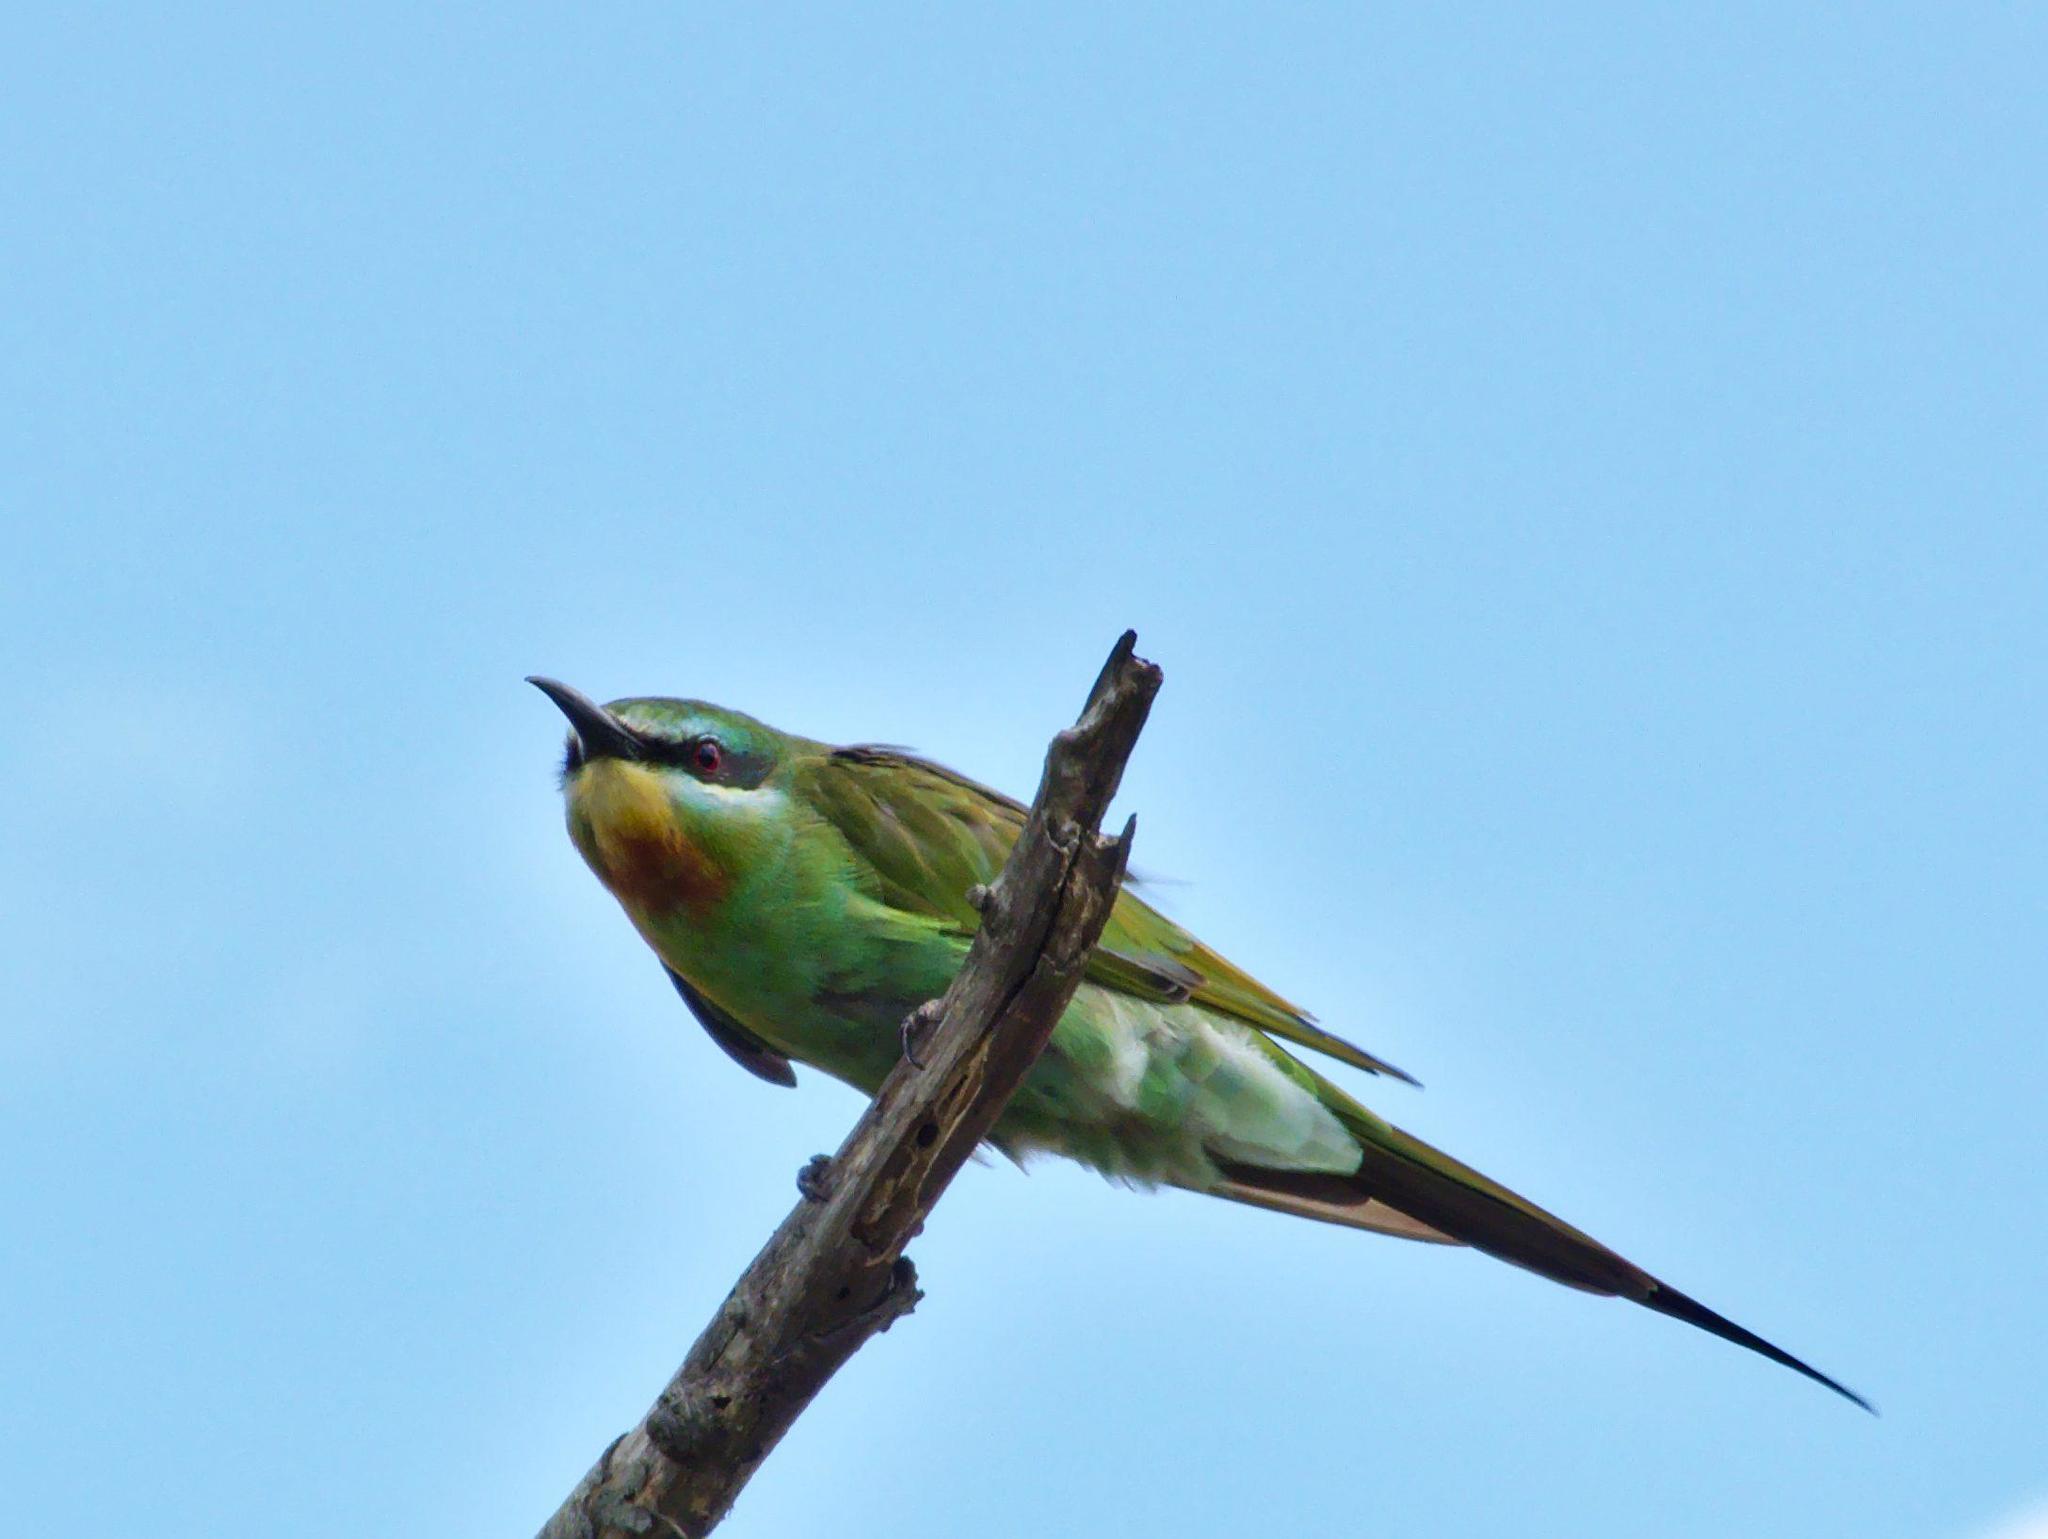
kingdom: Animalia
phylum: Chordata
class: Aves
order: Coraciiformes
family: Meropidae
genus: Merops
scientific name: Merops persicus
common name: Blue-cheeked bee-eater
